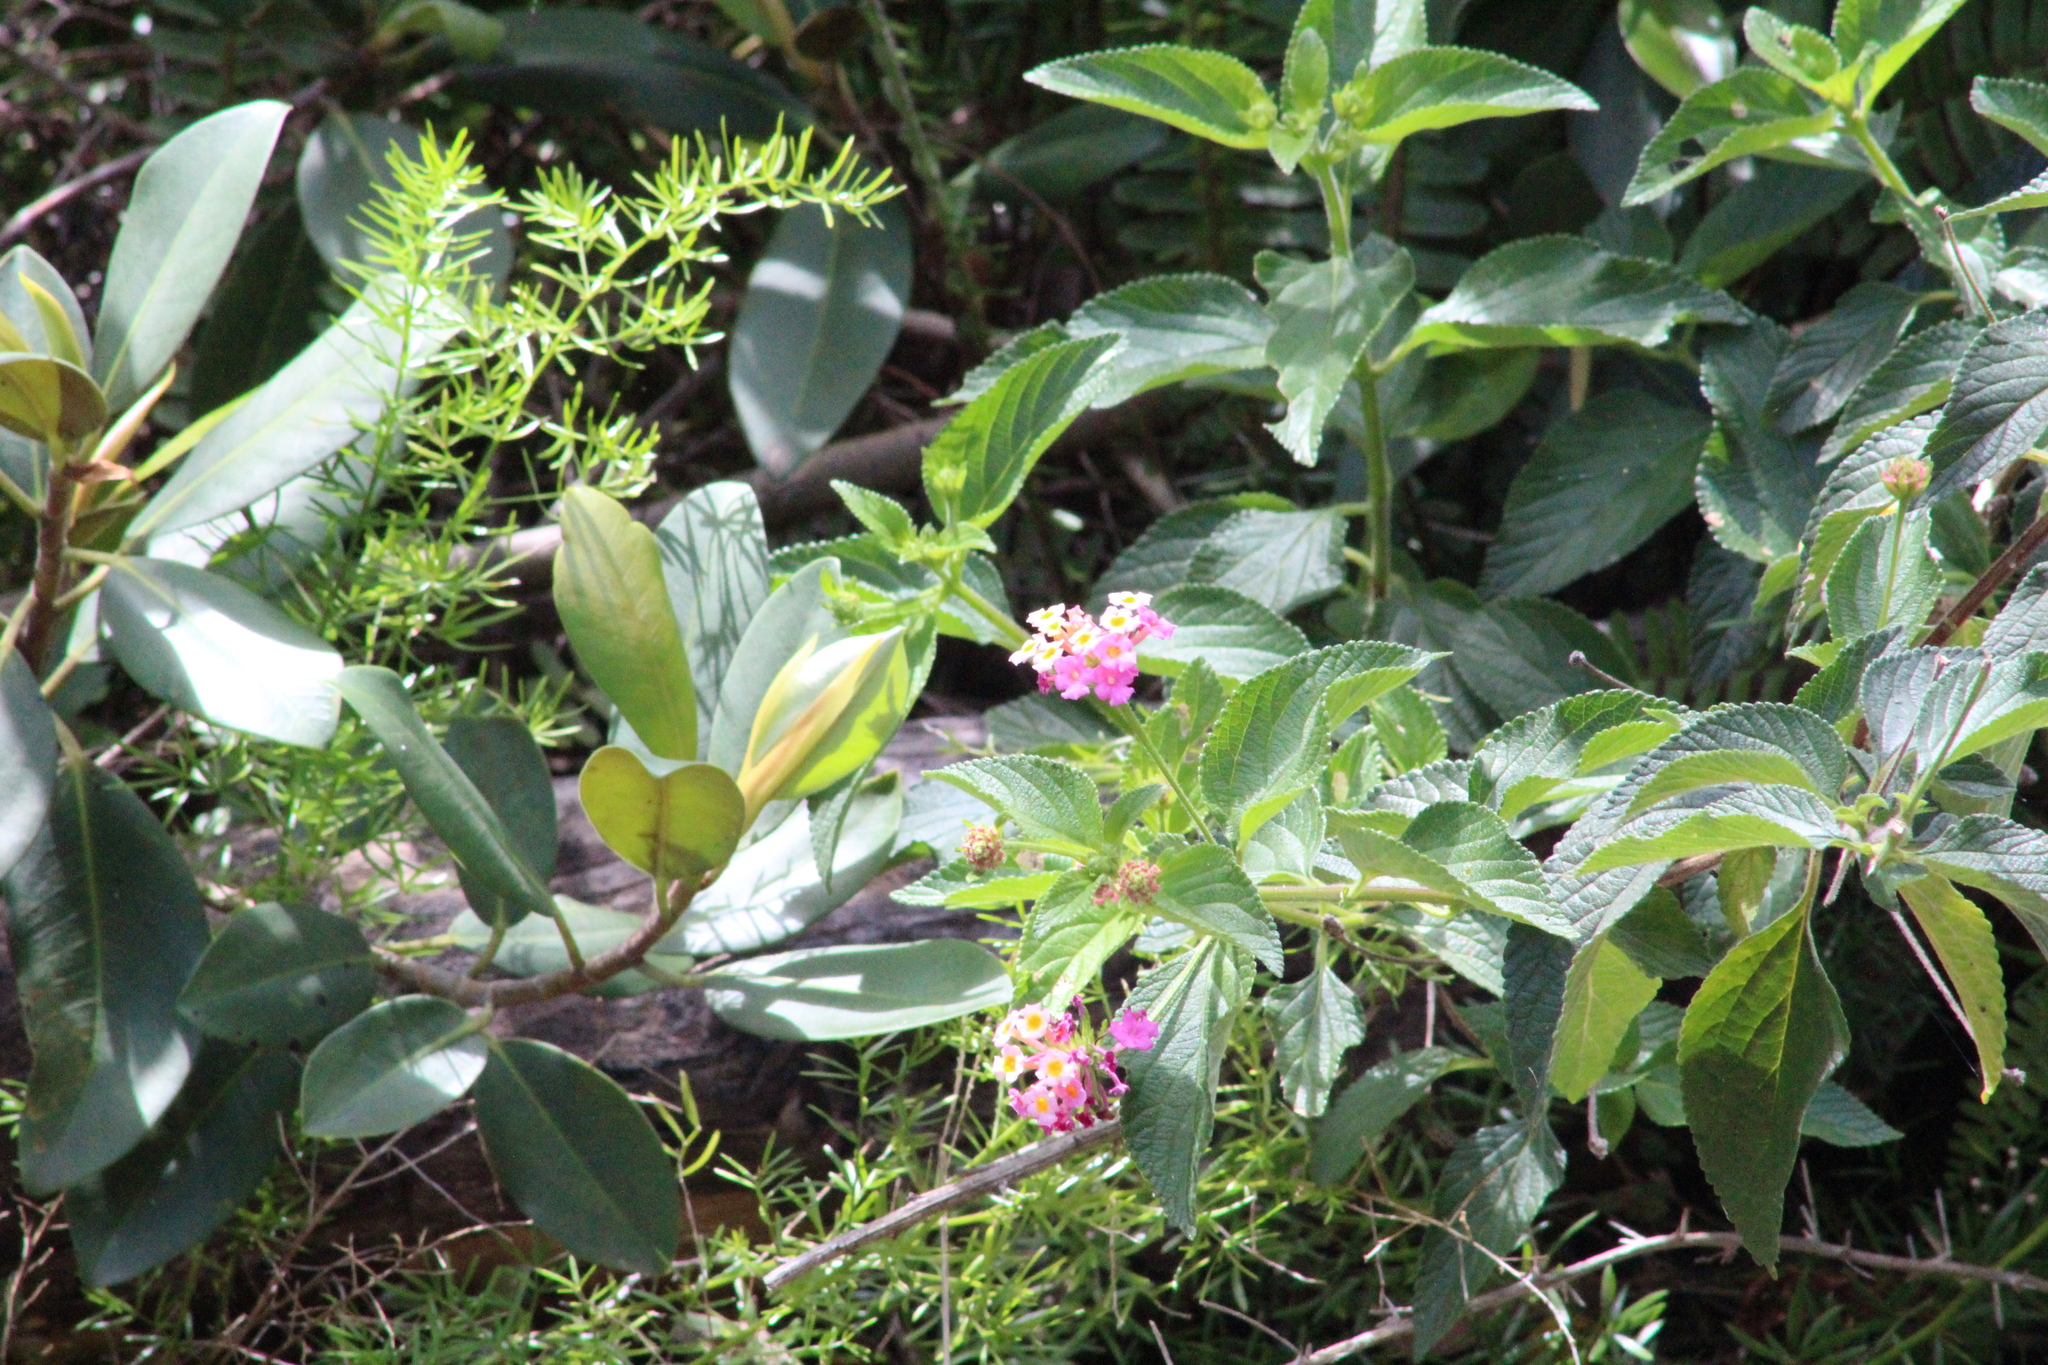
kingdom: Plantae
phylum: Tracheophyta
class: Magnoliopsida
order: Lamiales
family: Verbenaceae
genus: Lantana
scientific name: Lantana camara
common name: Lantana
